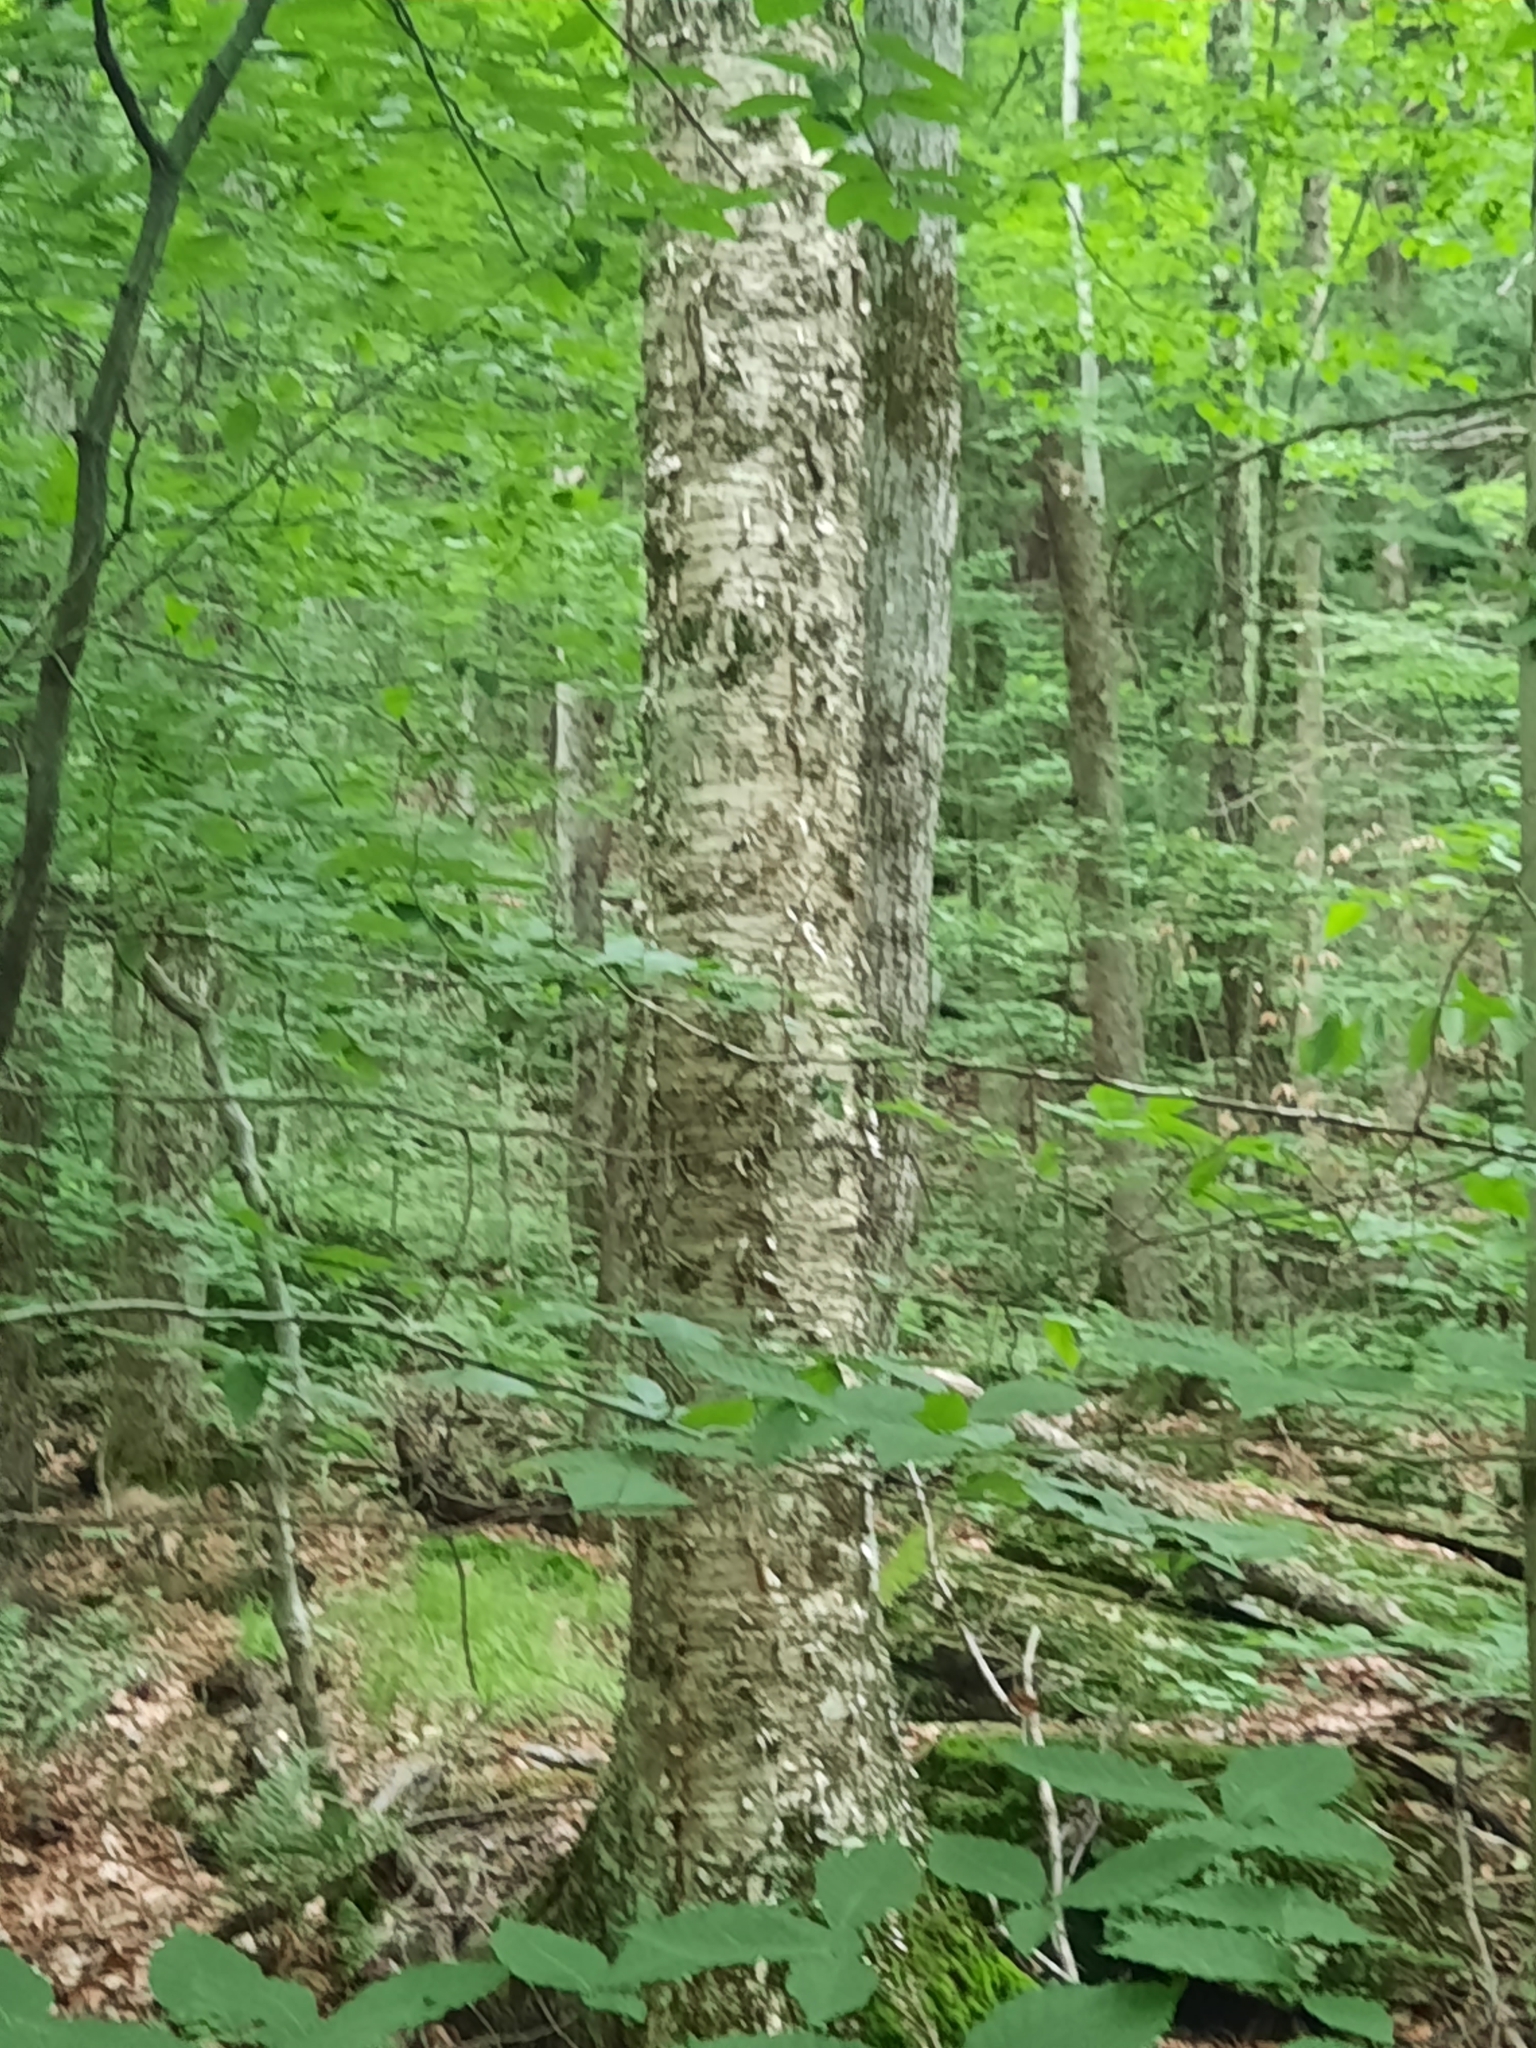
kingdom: Plantae
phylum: Tracheophyta
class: Magnoliopsida
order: Fagales
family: Betulaceae
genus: Betula
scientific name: Betula lenta
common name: Black birch
